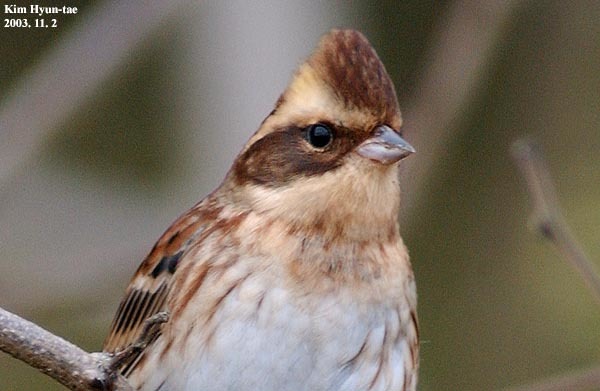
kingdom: Animalia
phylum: Chordata
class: Aves
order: Passeriformes
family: Emberizidae
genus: Emberiza
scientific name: Emberiza elegans
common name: Yellow-throated bunting
